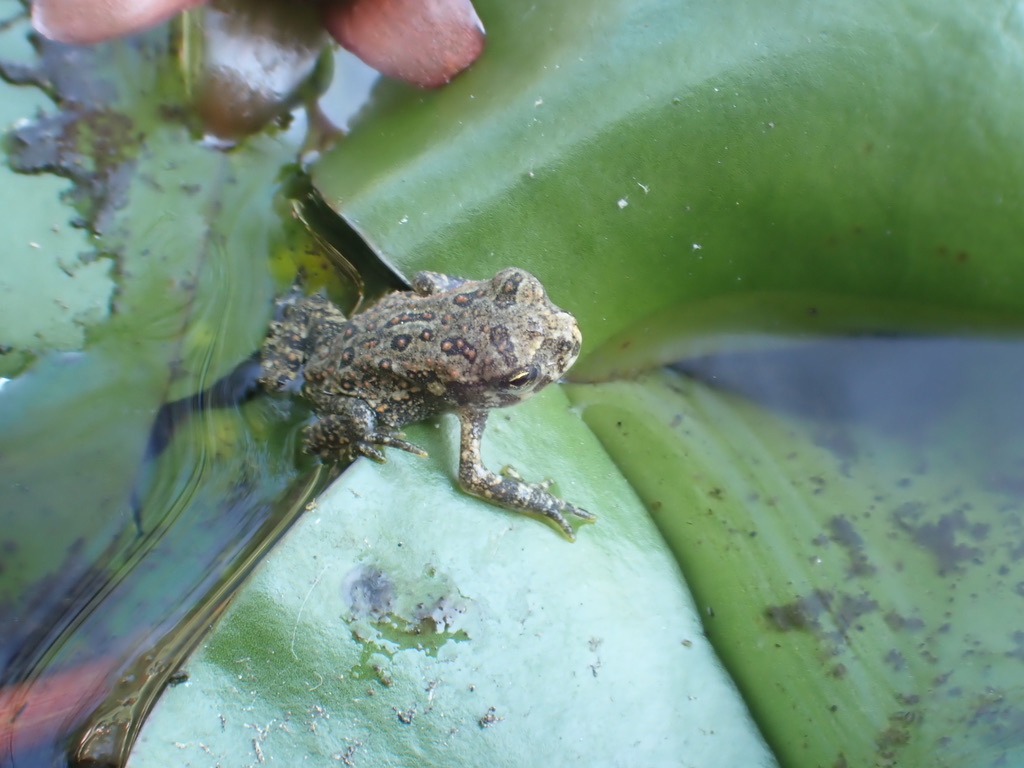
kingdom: Animalia
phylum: Chordata
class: Amphibia
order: Anura
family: Bufonidae
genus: Anaxyrus
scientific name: Anaxyrus americanus
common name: American toad
